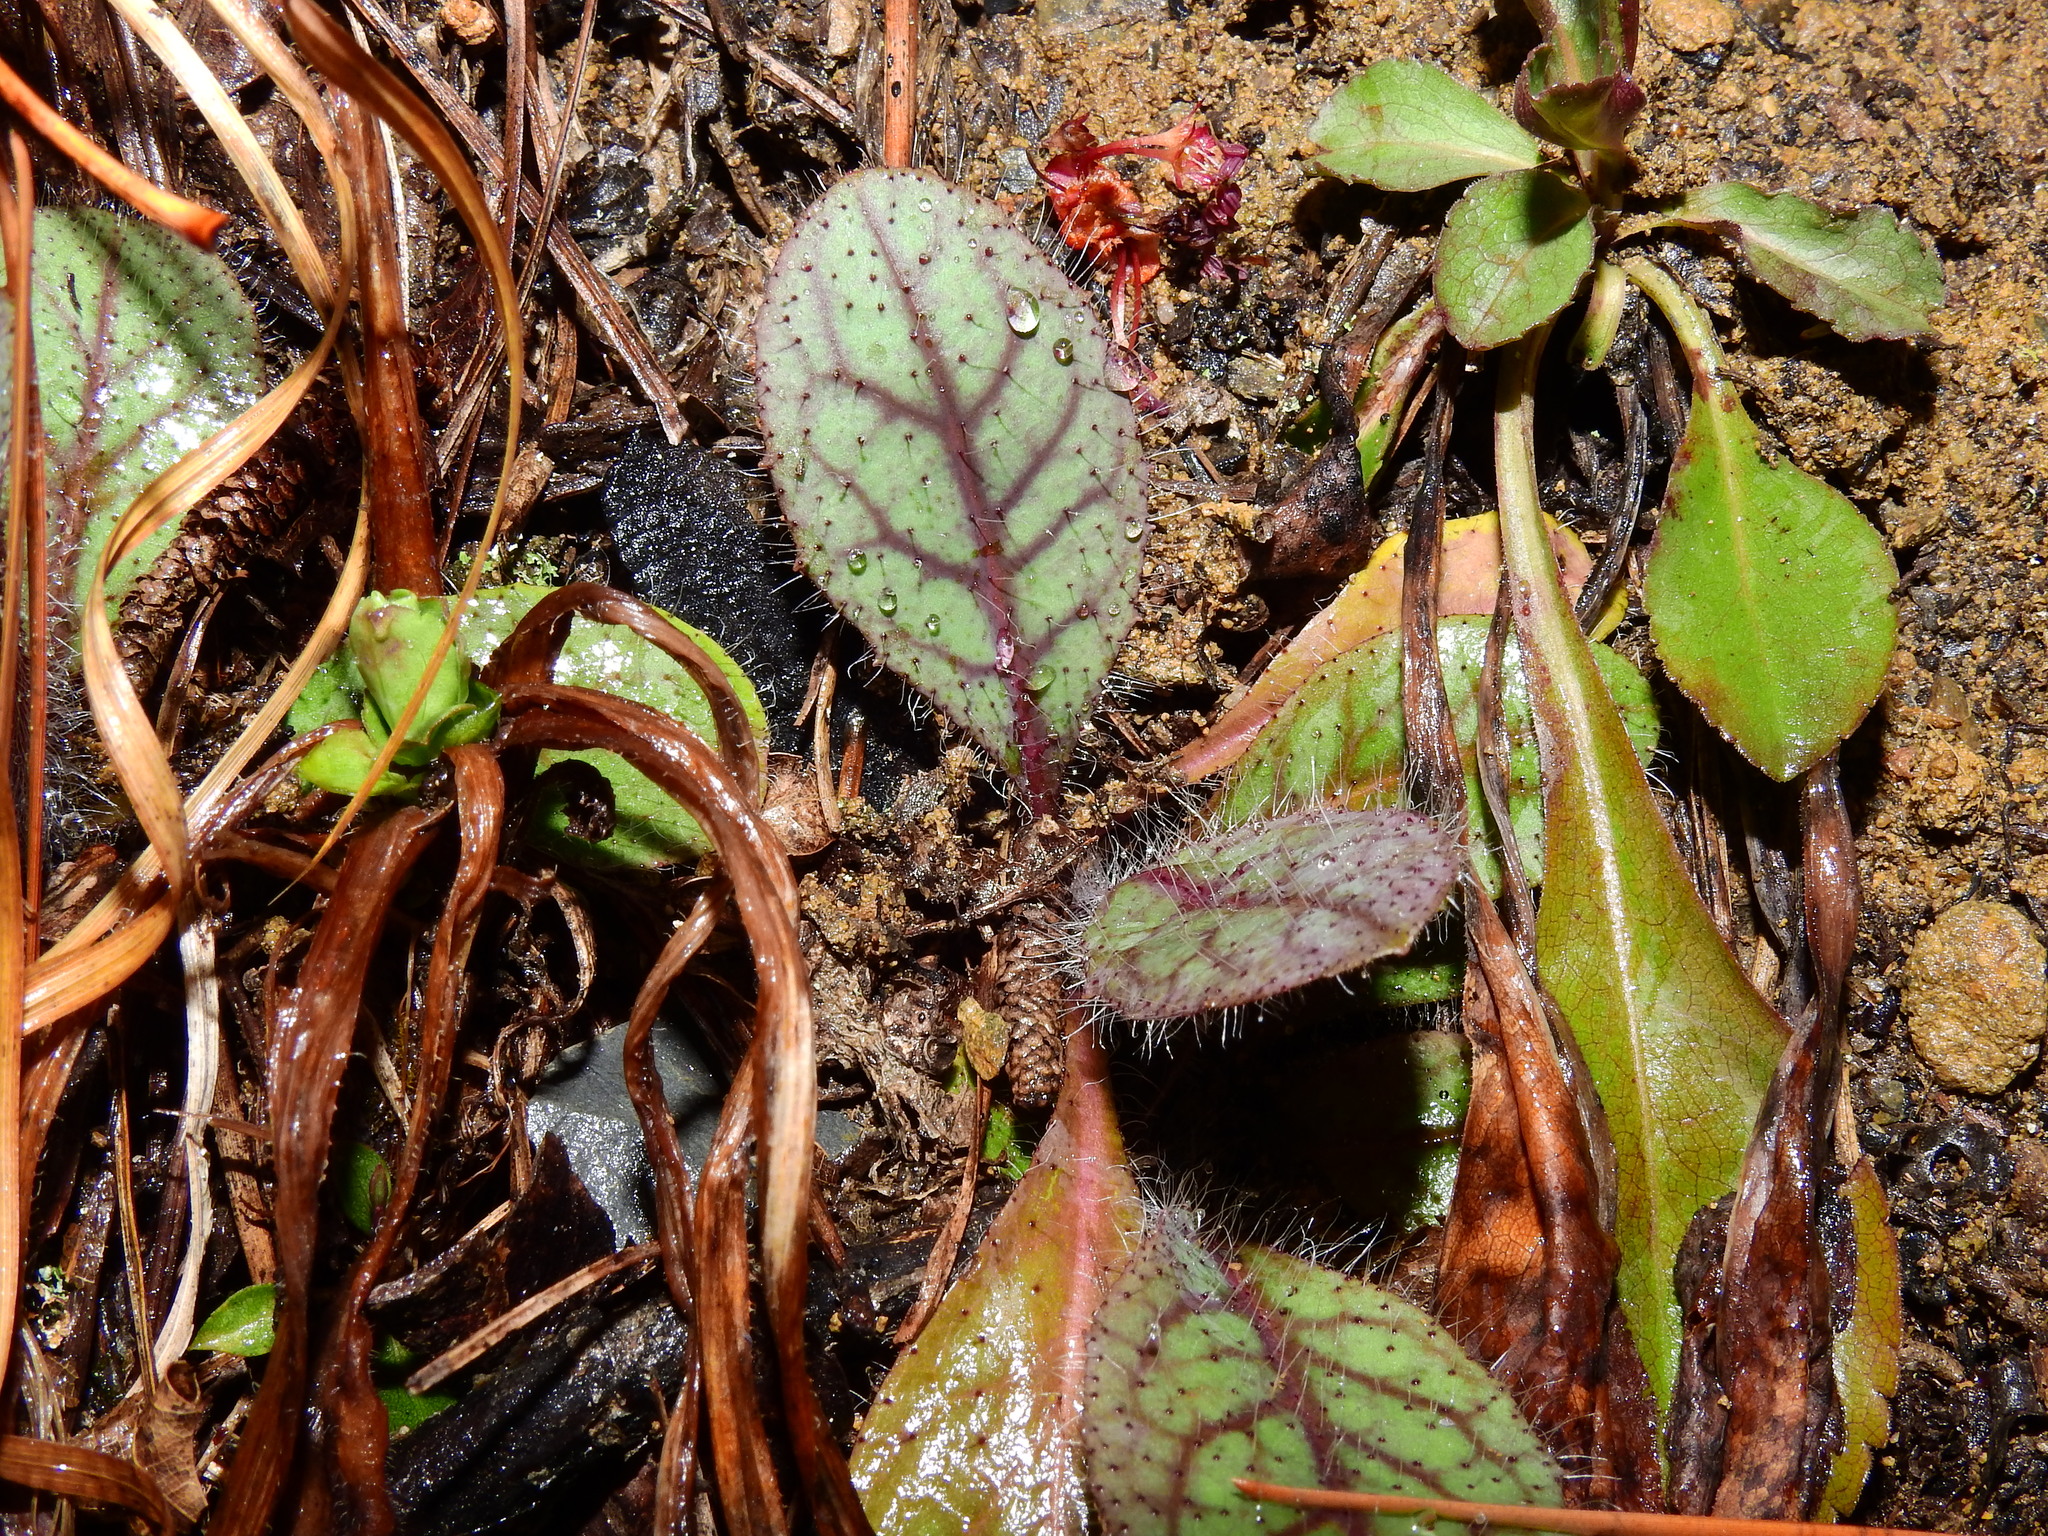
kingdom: Plantae
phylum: Tracheophyta
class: Magnoliopsida
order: Asterales
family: Asteraceae
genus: Hieracium
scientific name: Hieracium venosum
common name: Rattlesnake hawkweed
